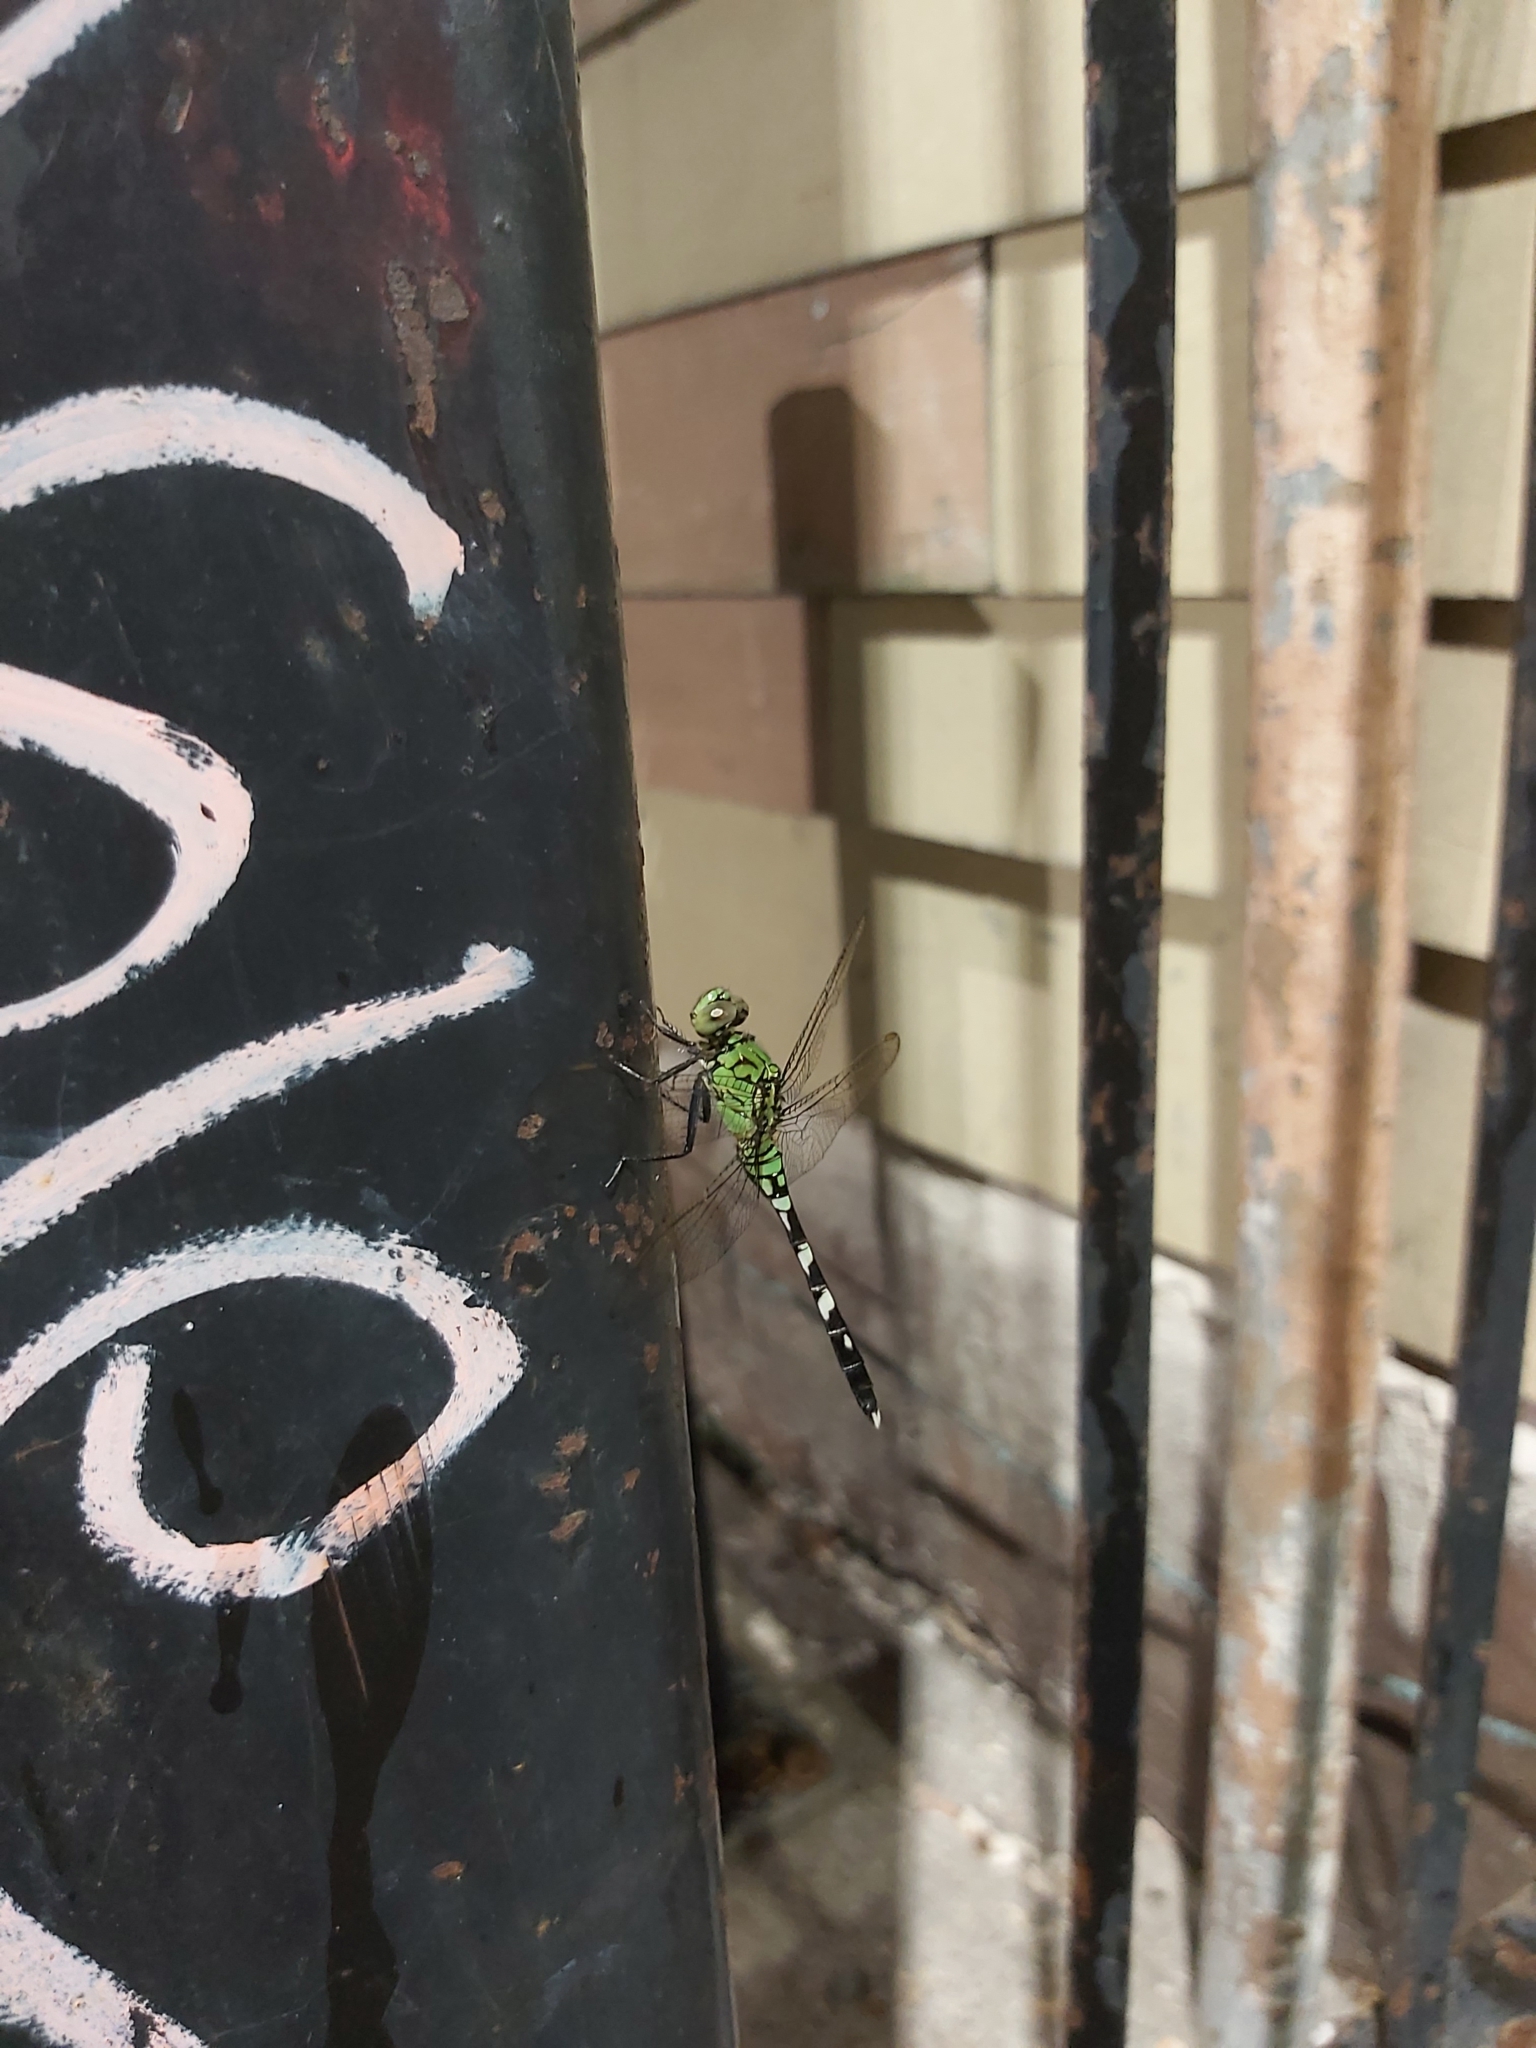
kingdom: Animalia
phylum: Arthropoda
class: Insecta
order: Odonata
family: Libellulidae
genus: Erythemis
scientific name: Erythemis simplicicollis
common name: Eastern pondhawk
